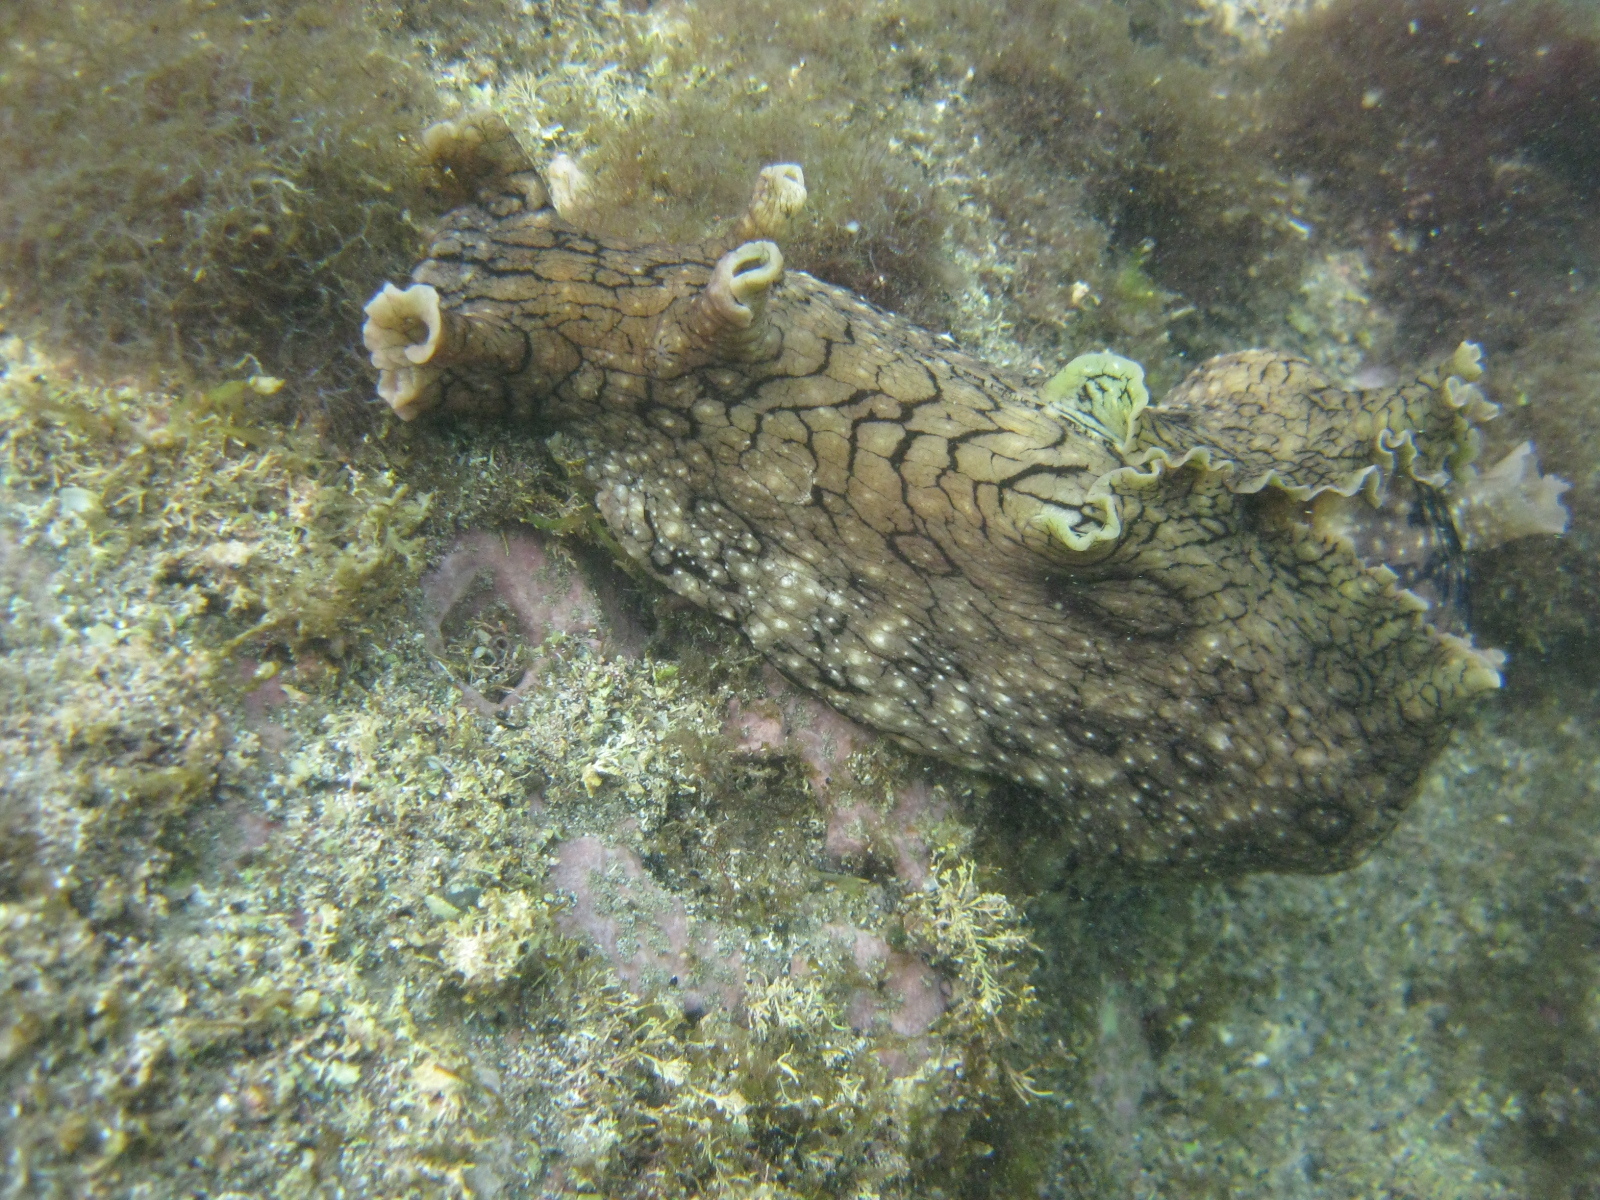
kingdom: Animalia
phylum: Mollusca
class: Gastropoda
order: Aplysiida
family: Aplysiidae
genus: Aplysia
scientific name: Aplysia argus
